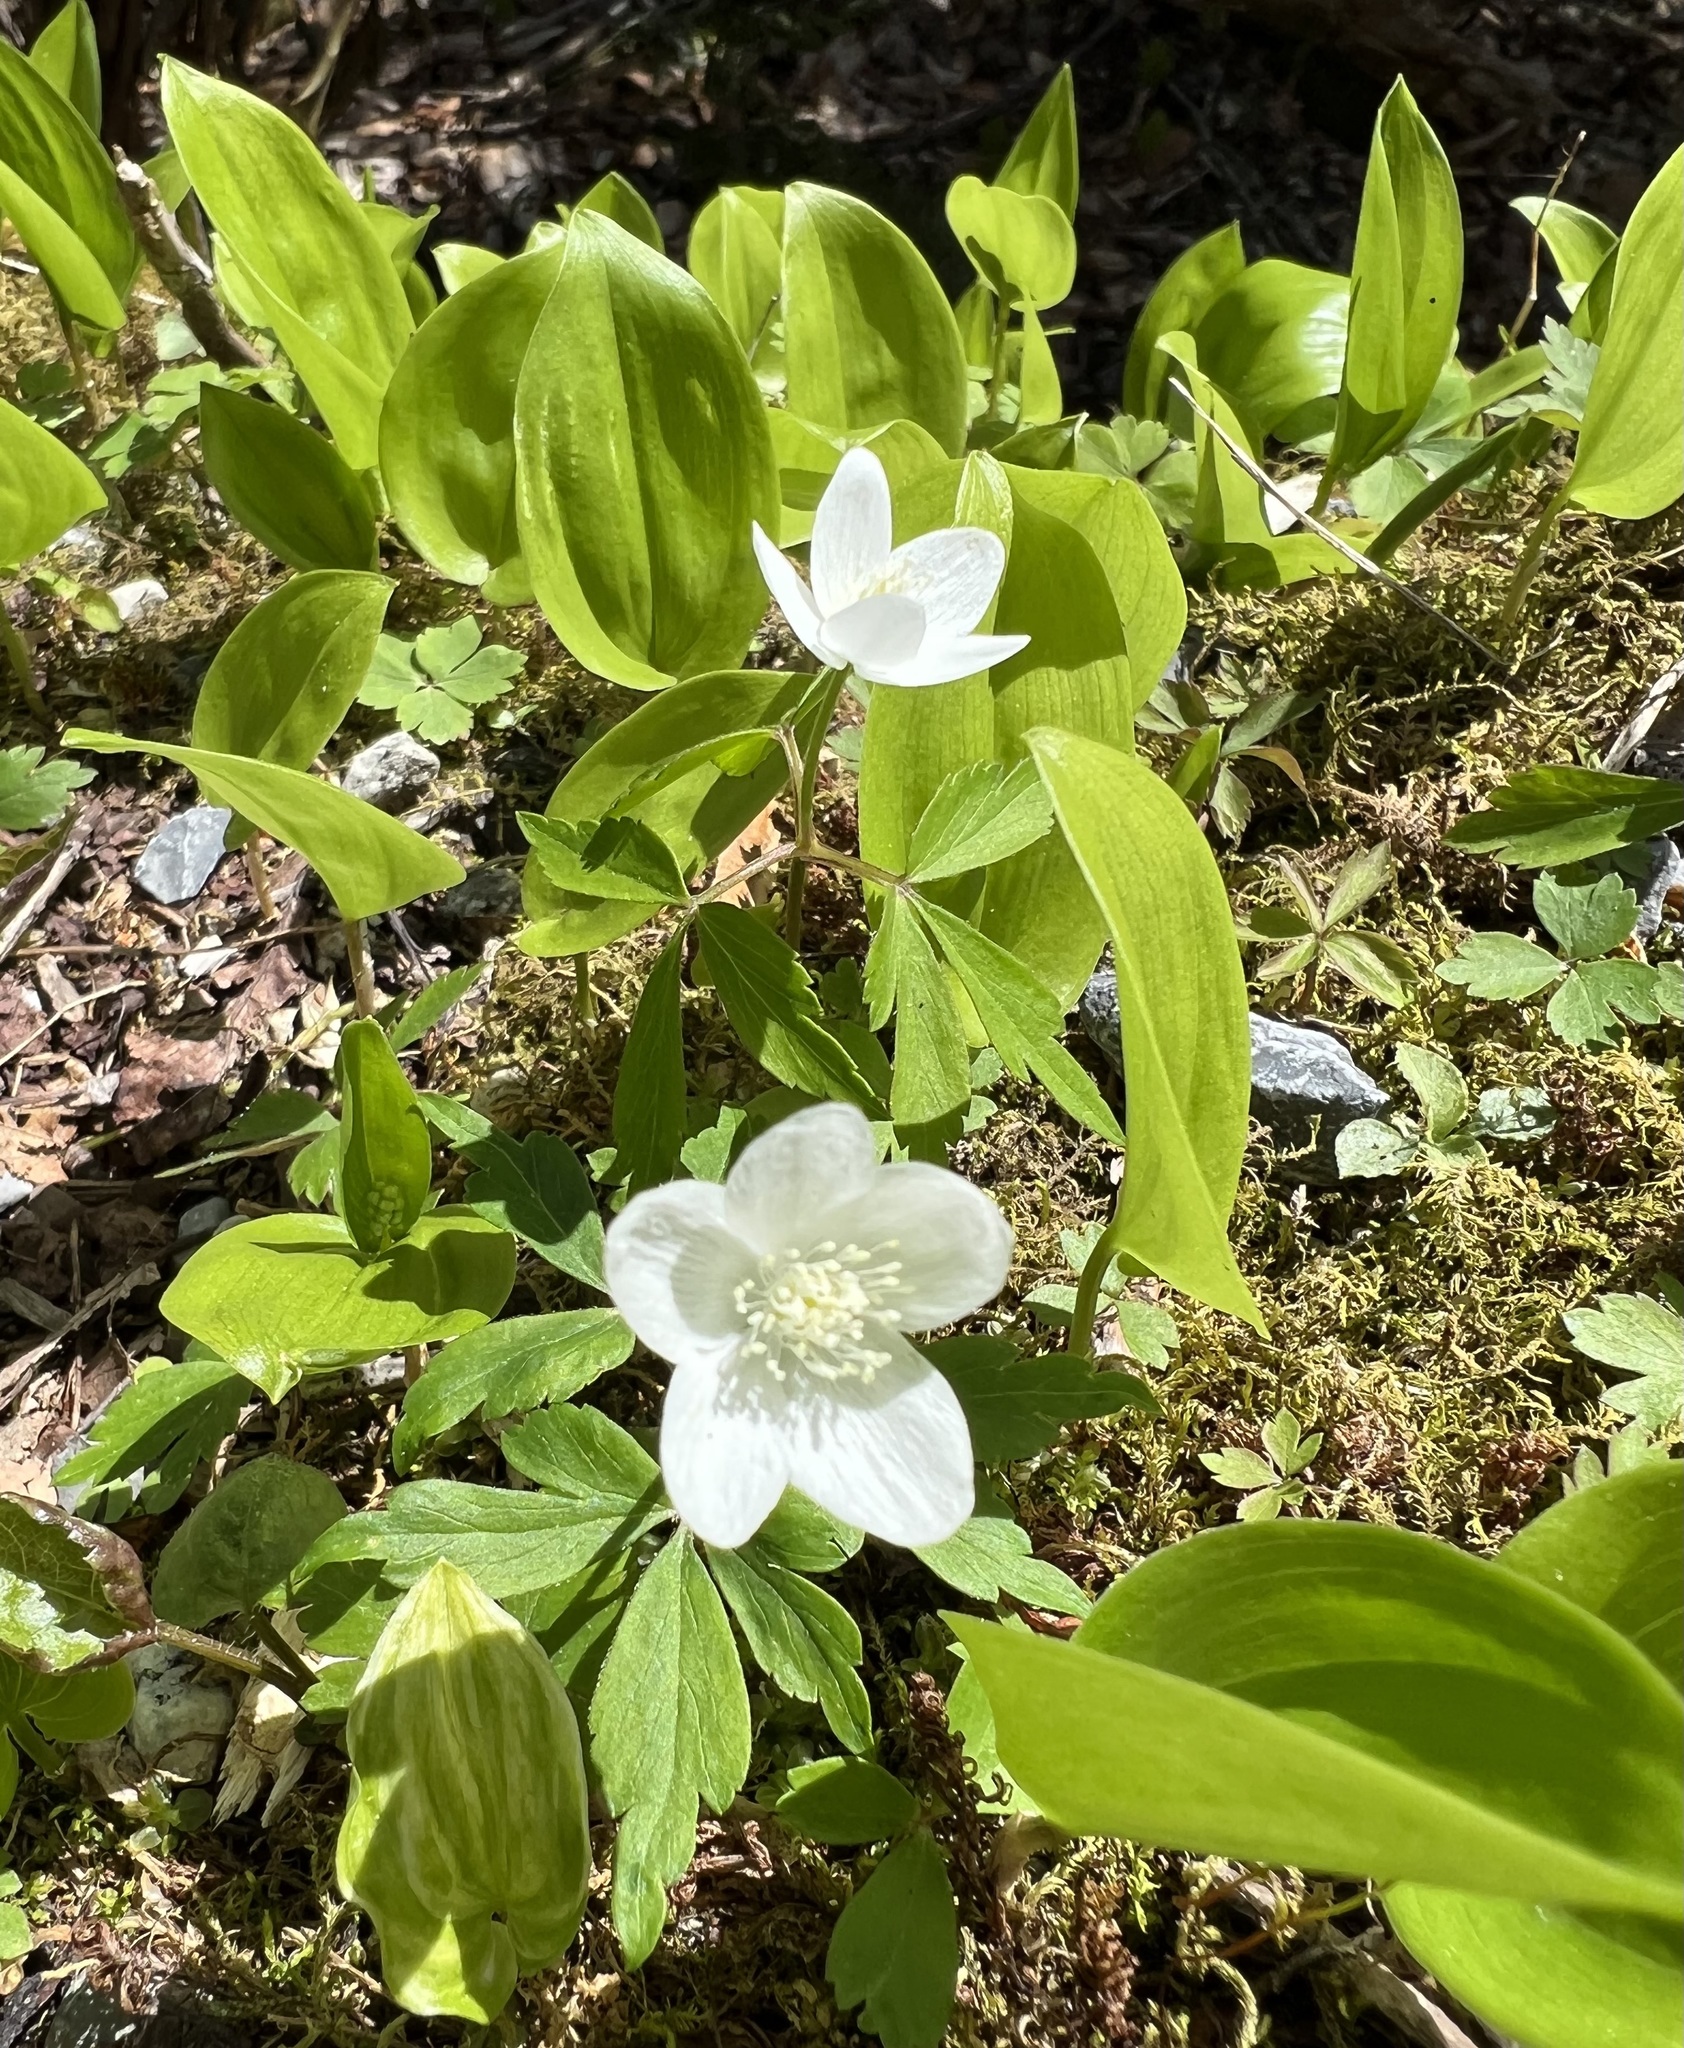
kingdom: Plantae
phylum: Tracheophyta
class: Magnoliopsida
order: Ranunculales
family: Ranunculaceae
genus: Anemone
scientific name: Anemone quinquefolia
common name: Wood anemone
